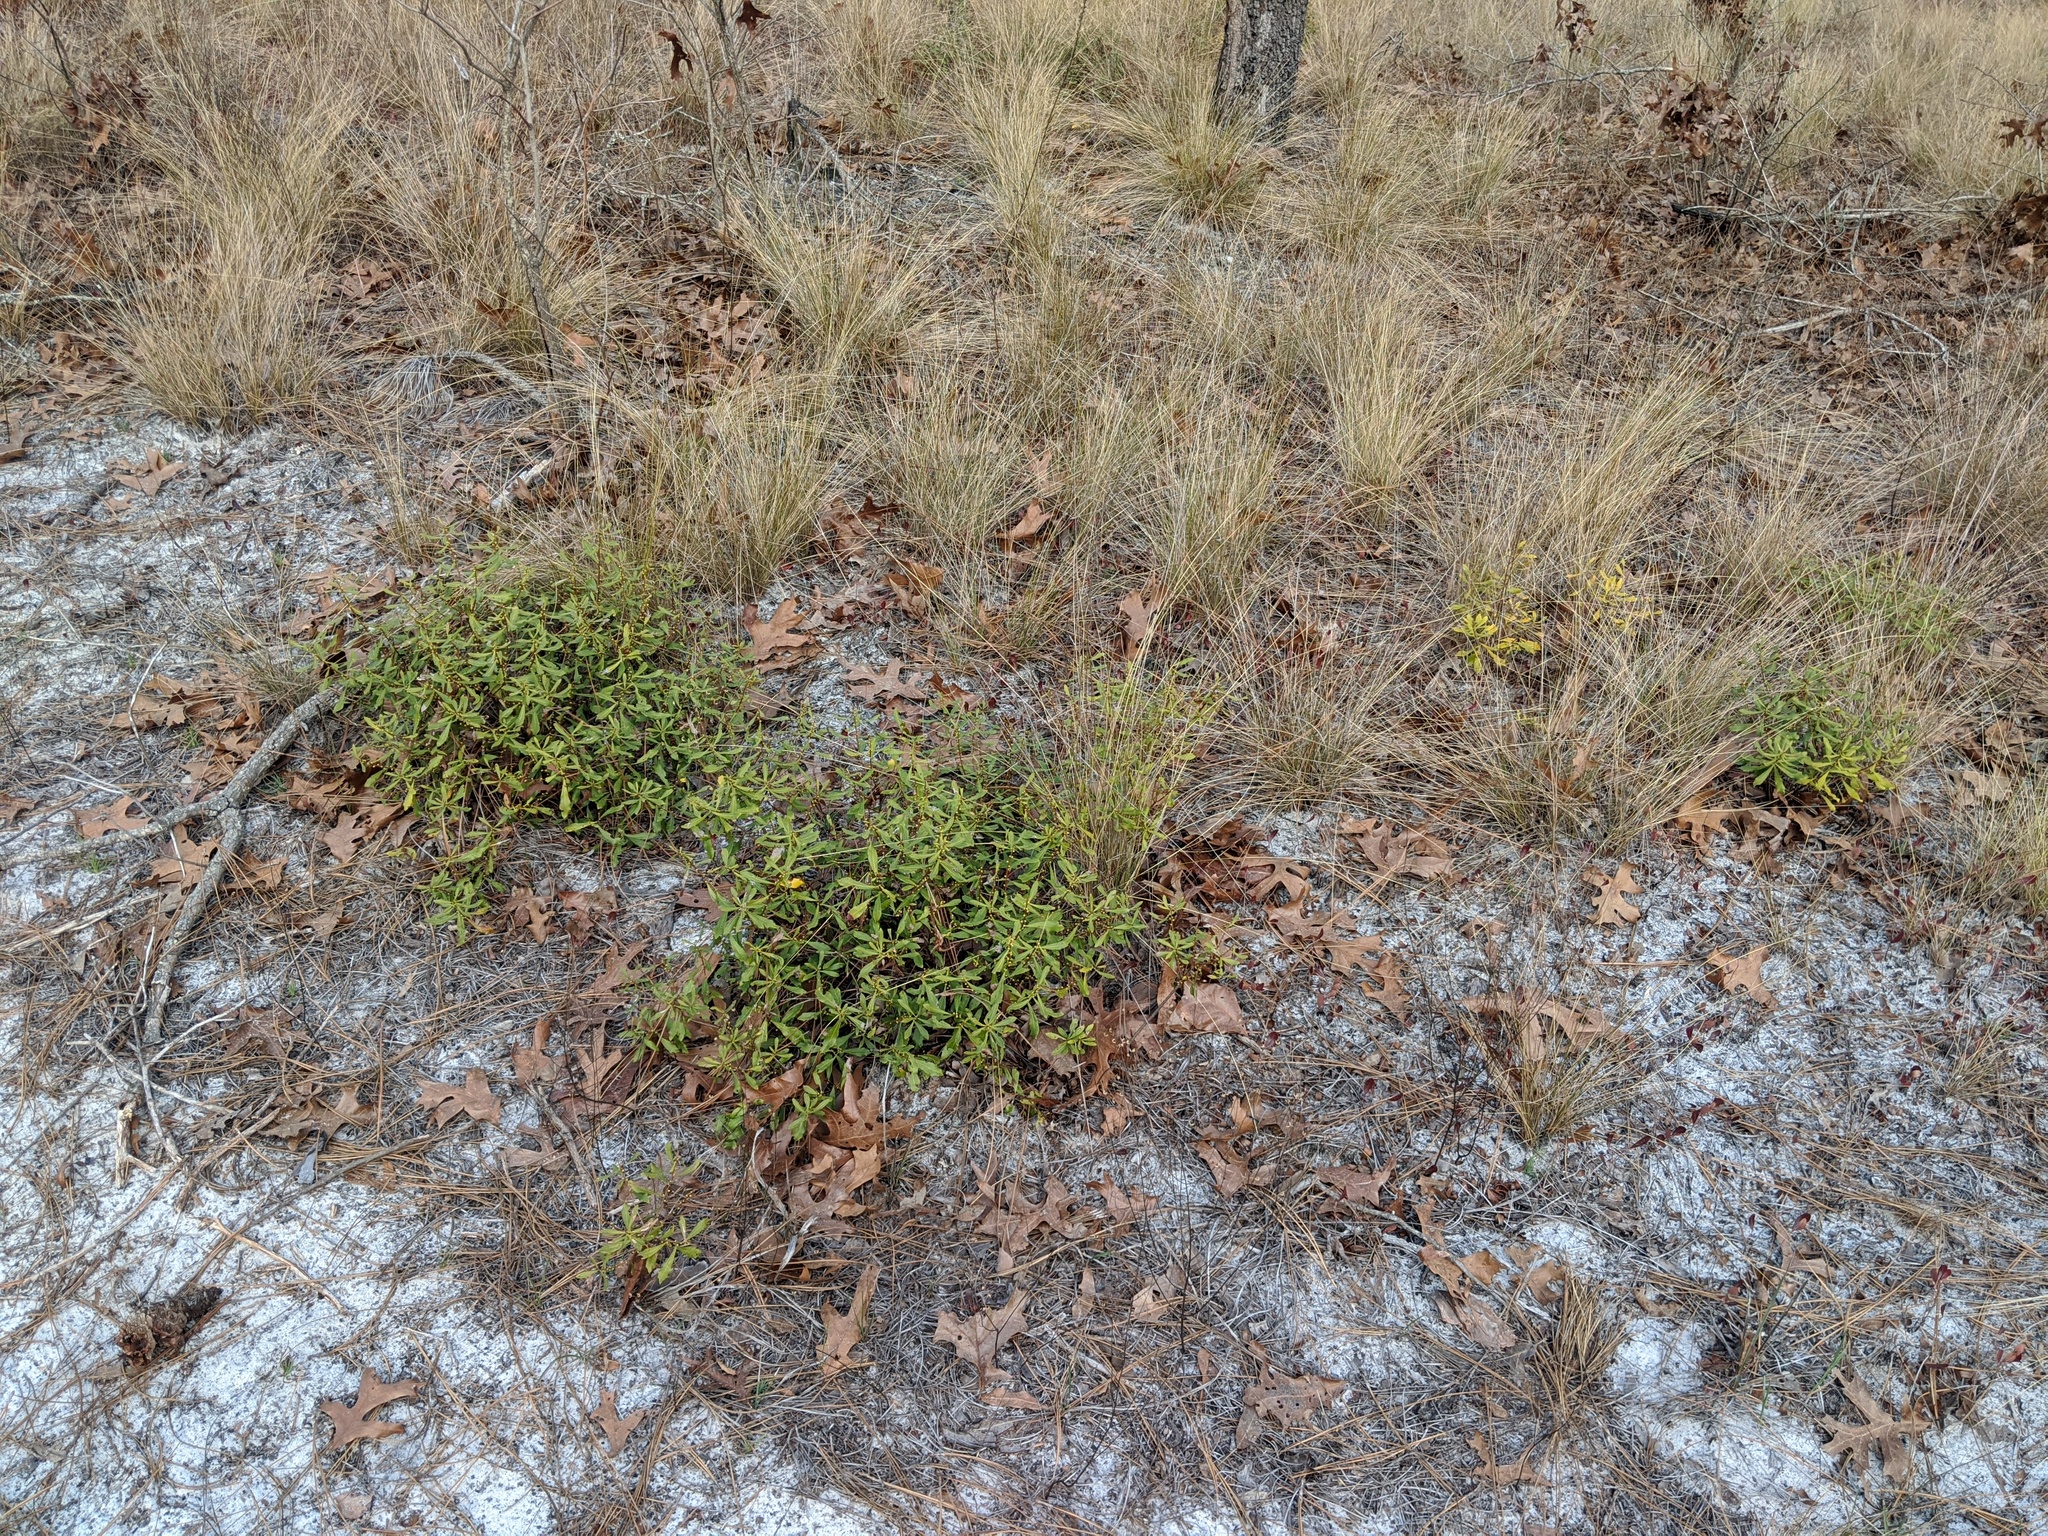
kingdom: Plantae
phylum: Tracheophyta
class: Magnoliopsida
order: Fagales
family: Myricaceae
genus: Morella
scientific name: Morella cerifera
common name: Wax myrtle
